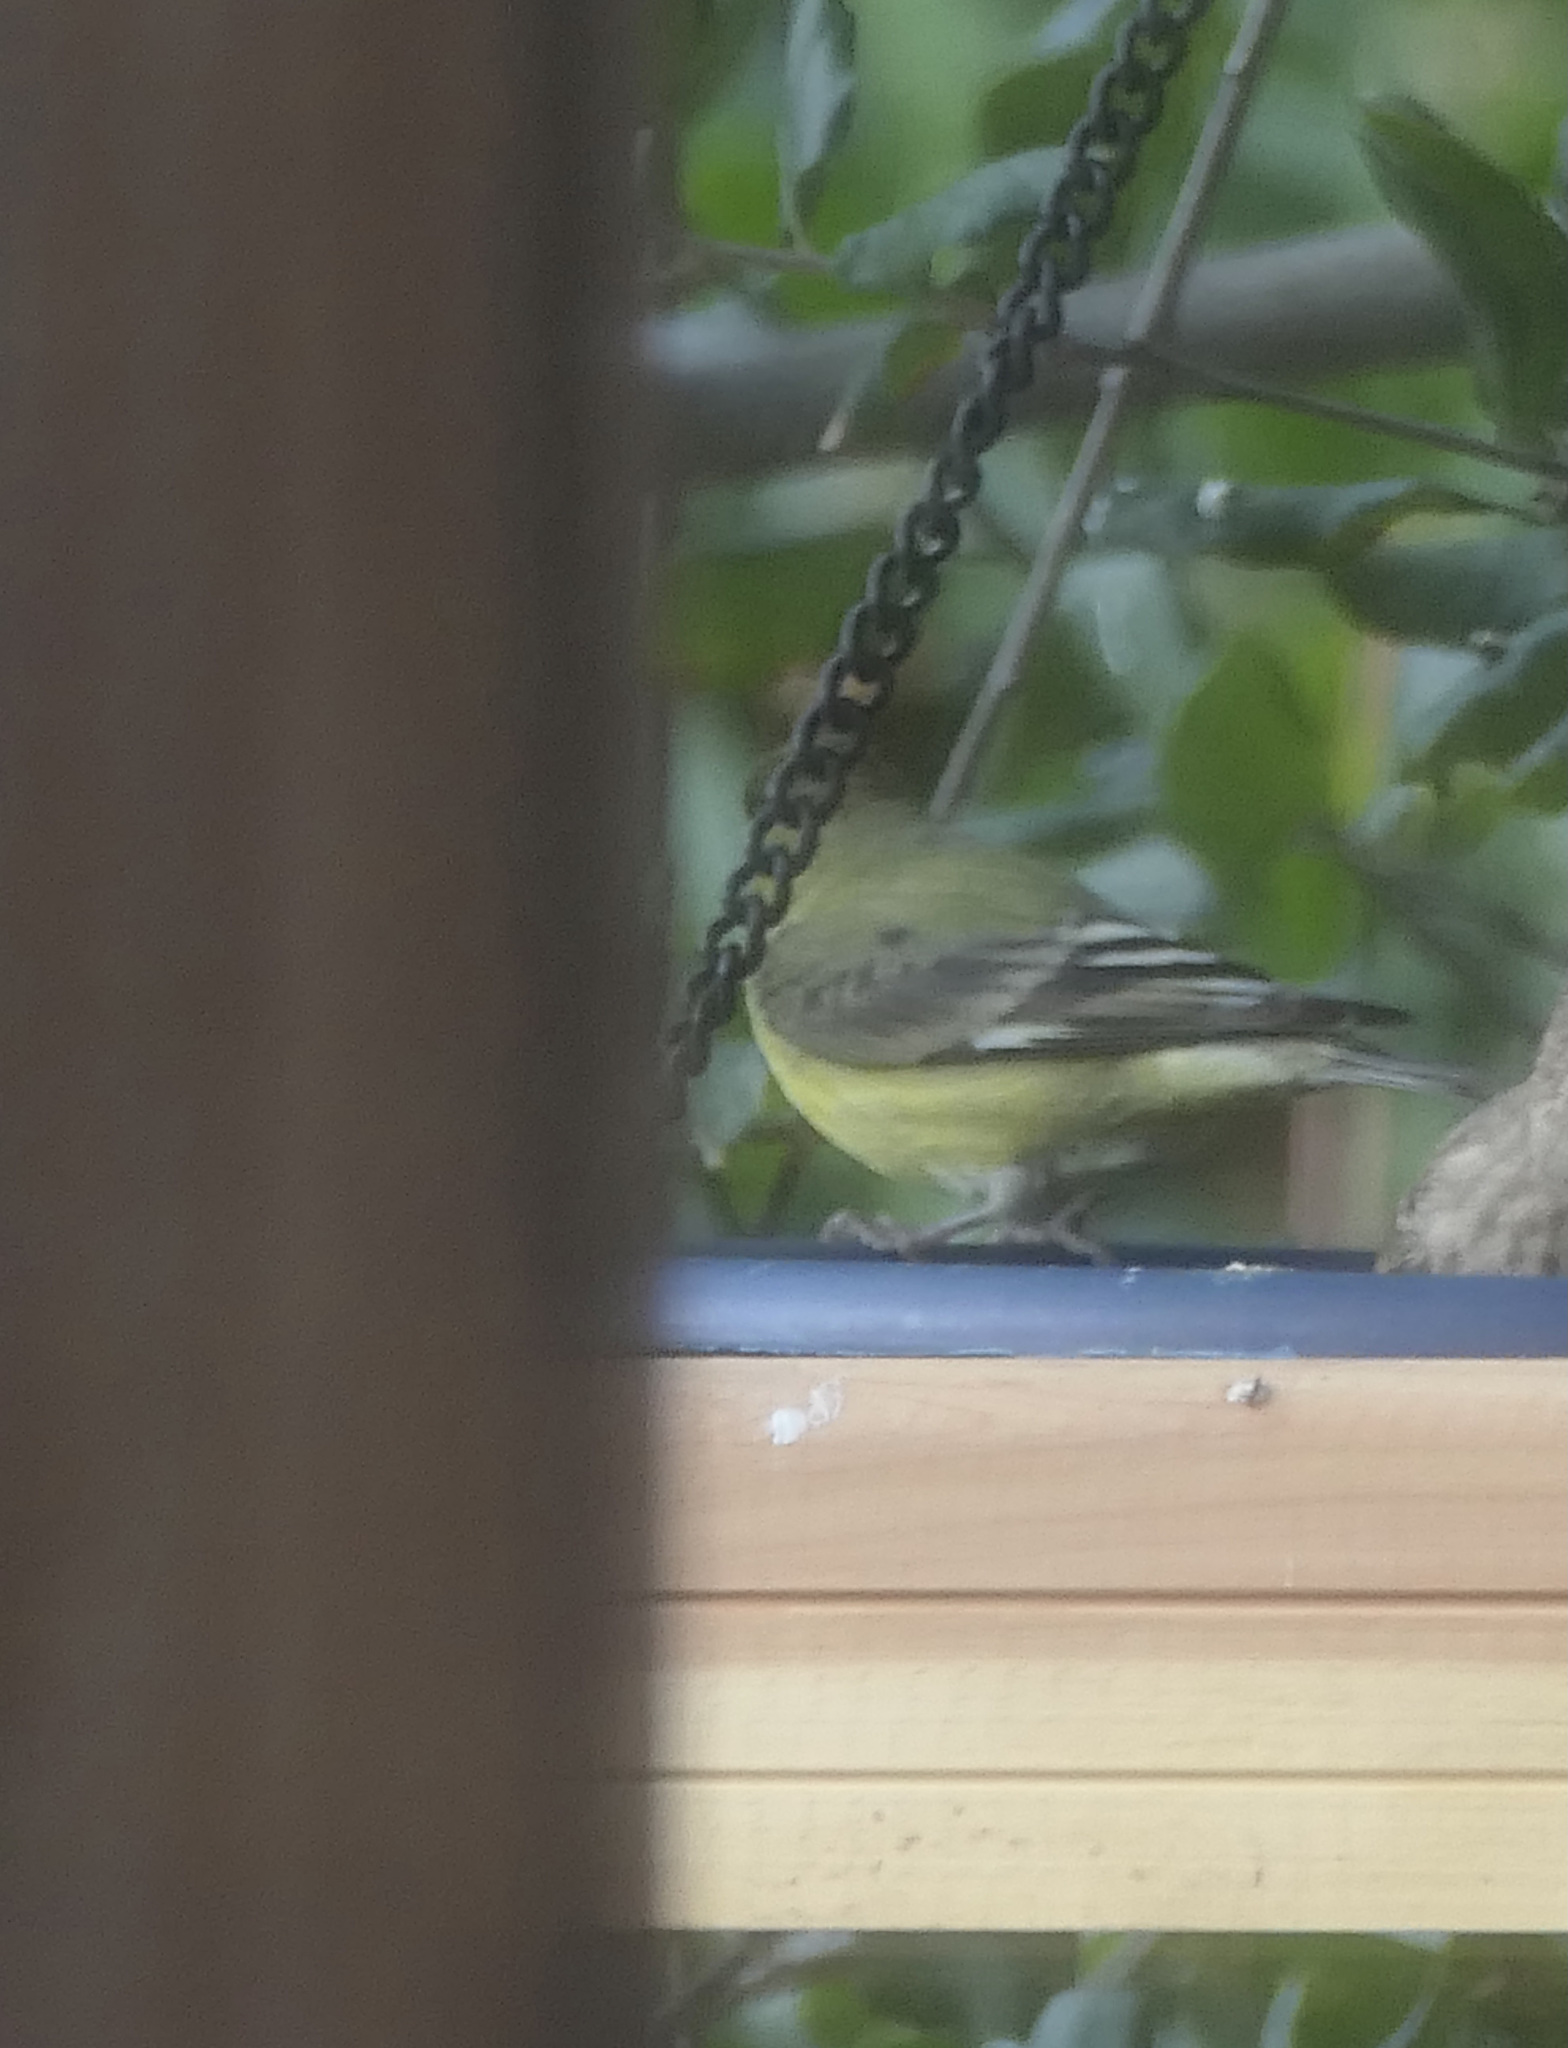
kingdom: Animalia
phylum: Chordata
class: Aves
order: Passeriformes
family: Fringillidae
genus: Spinus
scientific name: Spinus psaltria
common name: Lesser goldfinch
